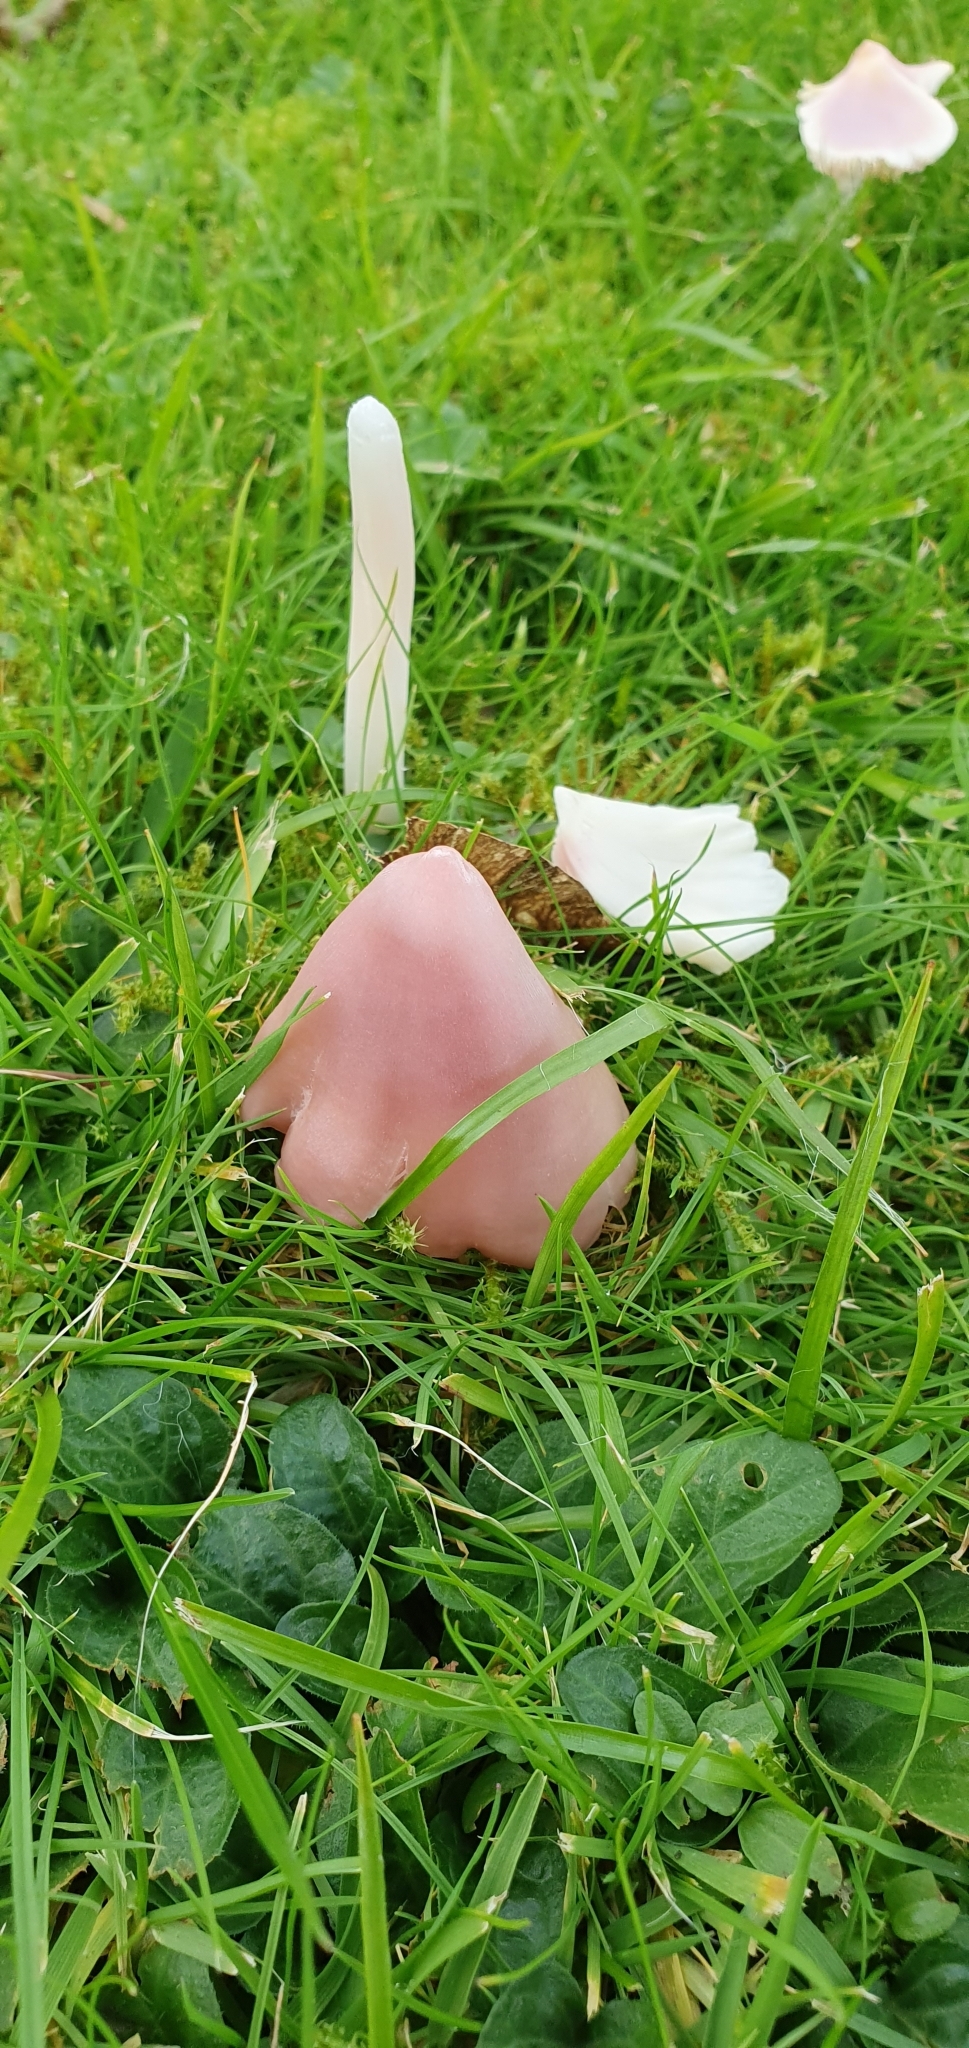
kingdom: Fungi
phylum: Basidiomycota
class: Agaricomycetes
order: Agaricales
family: Hygrophoraceae
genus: Porpolomopsis
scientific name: Porpolomopsis calyptriformis
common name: Pink waxcap
